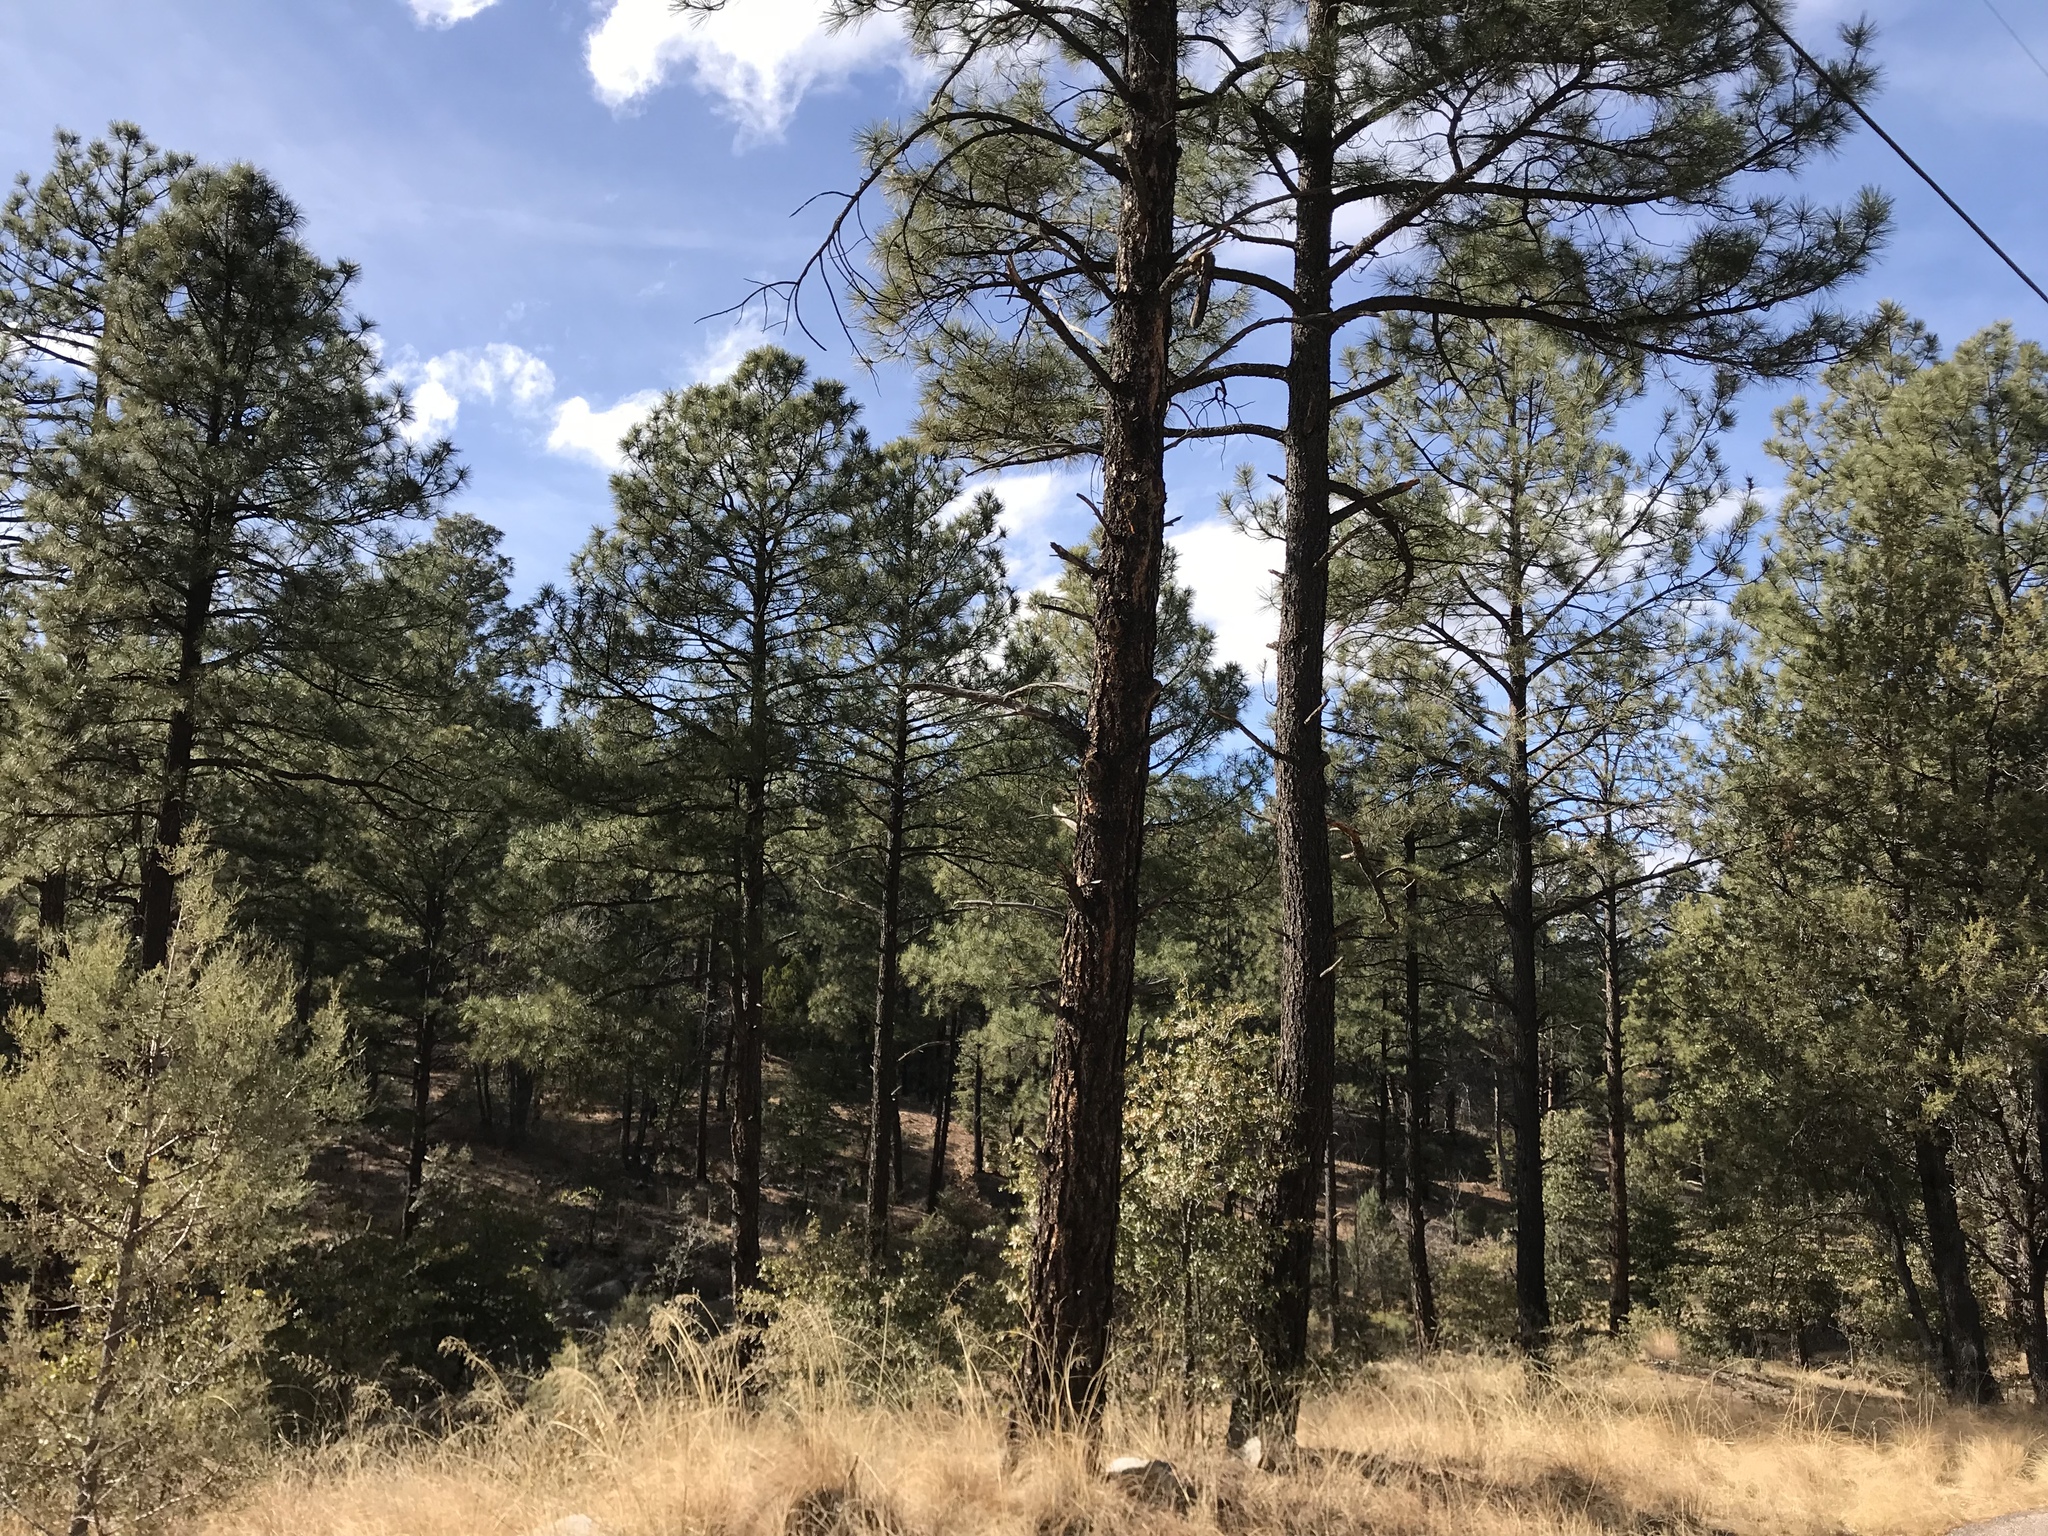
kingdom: Plantae
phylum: Tracheophyta
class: Pinopsida
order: Pinales
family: Pinaceae
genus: Pinus
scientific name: Pinus ponderosa
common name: Western yellow-pine
